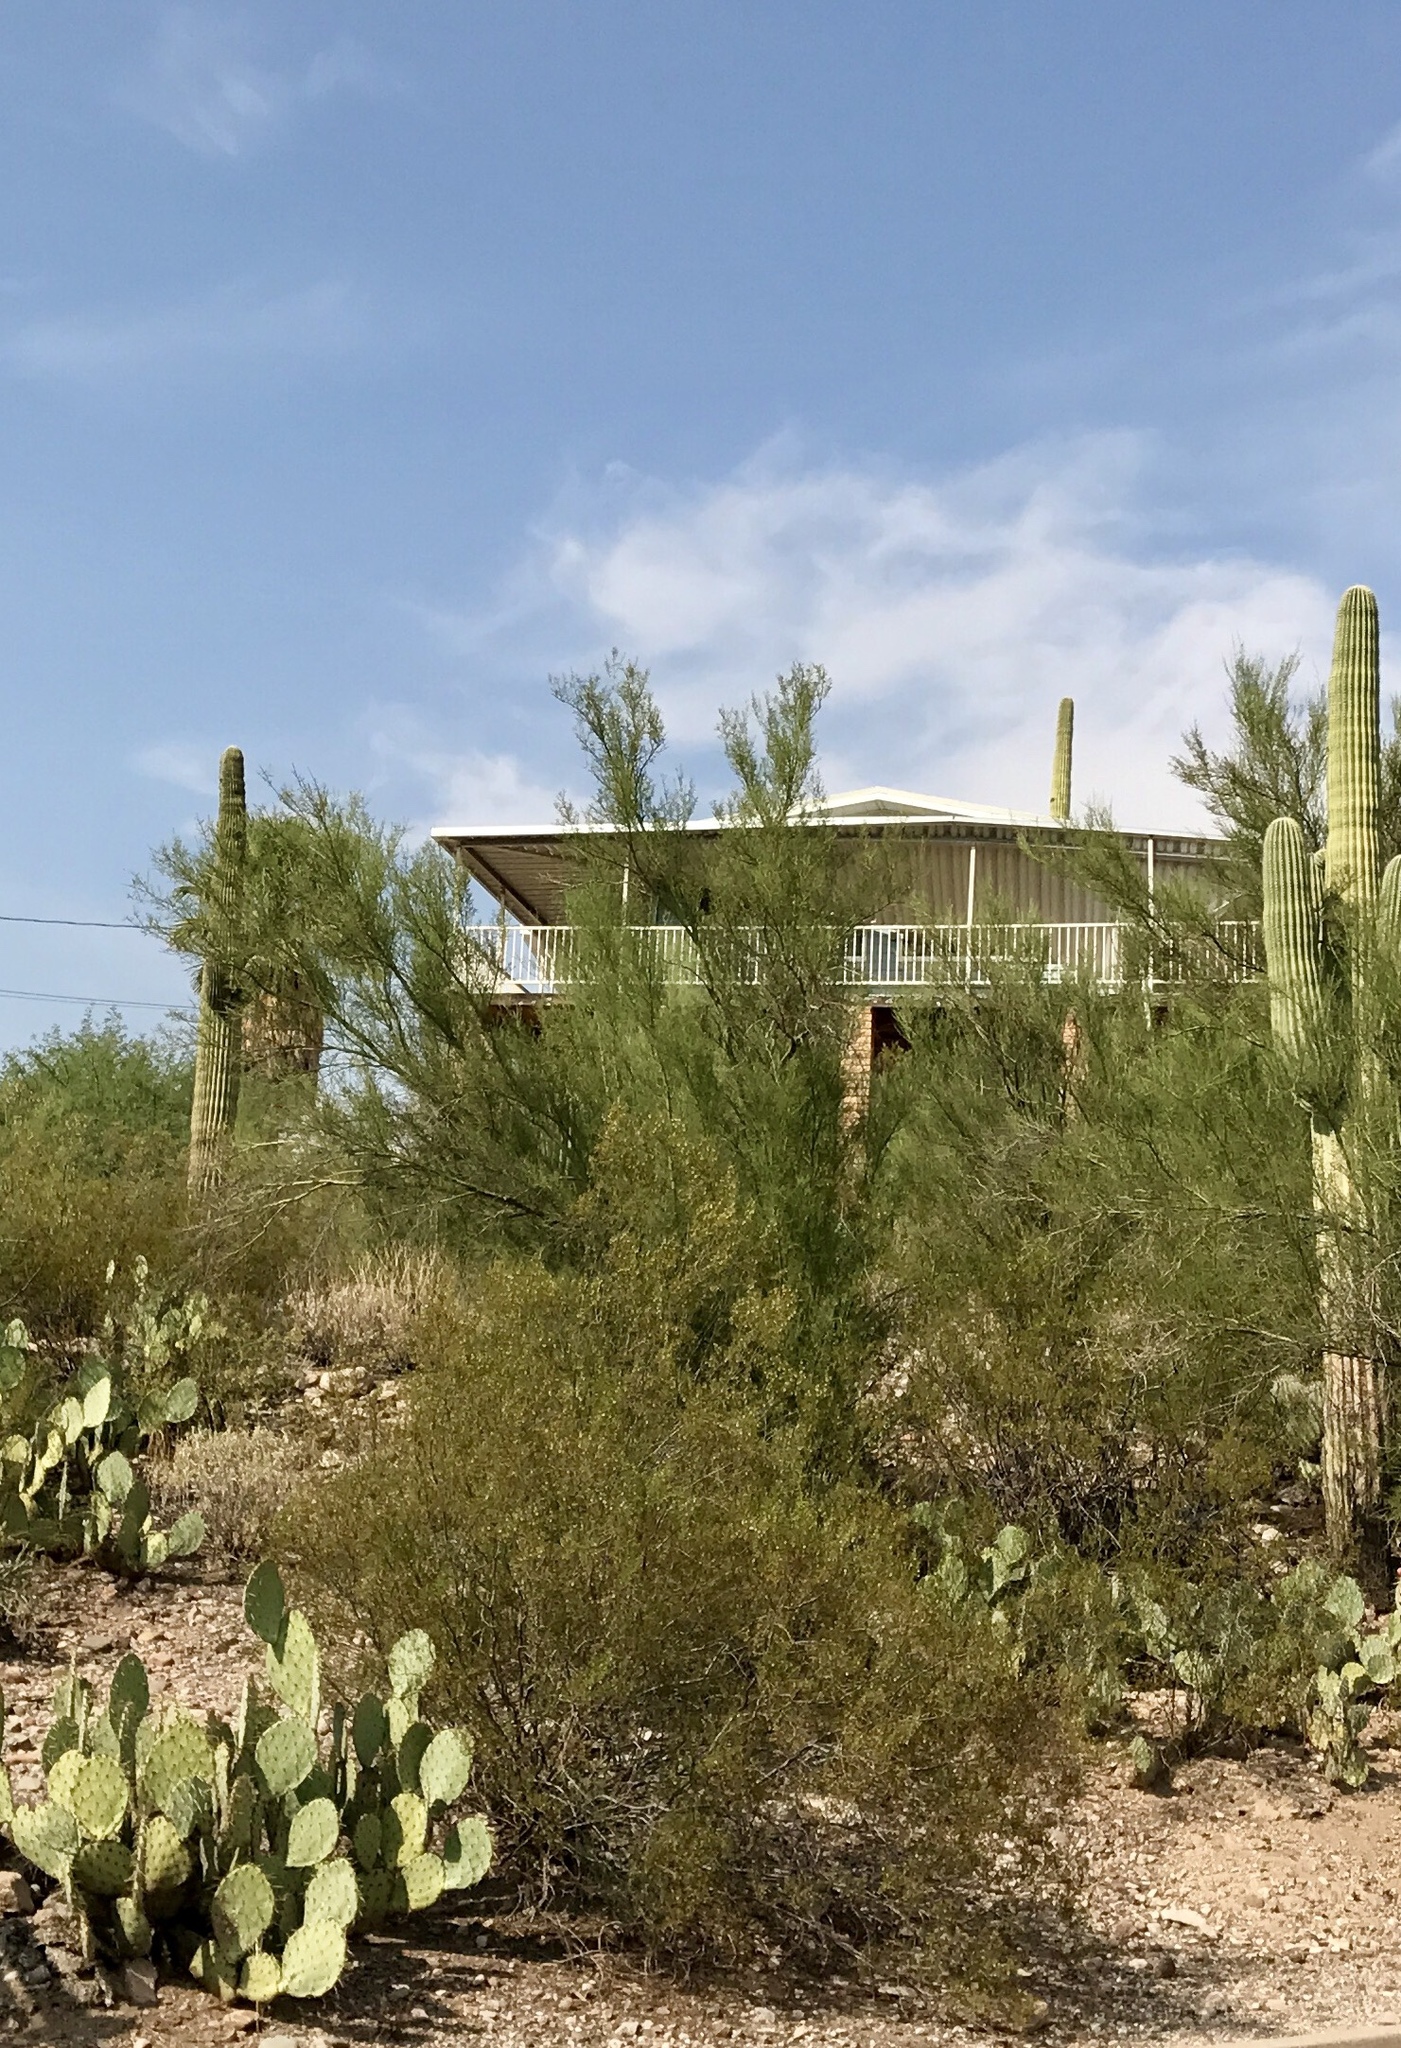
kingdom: Plantae
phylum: Tracheophyta
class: Magnoliopsida
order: Zygophyllales
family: Zygophyllaceae
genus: Larrea
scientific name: Larrea tridentata
